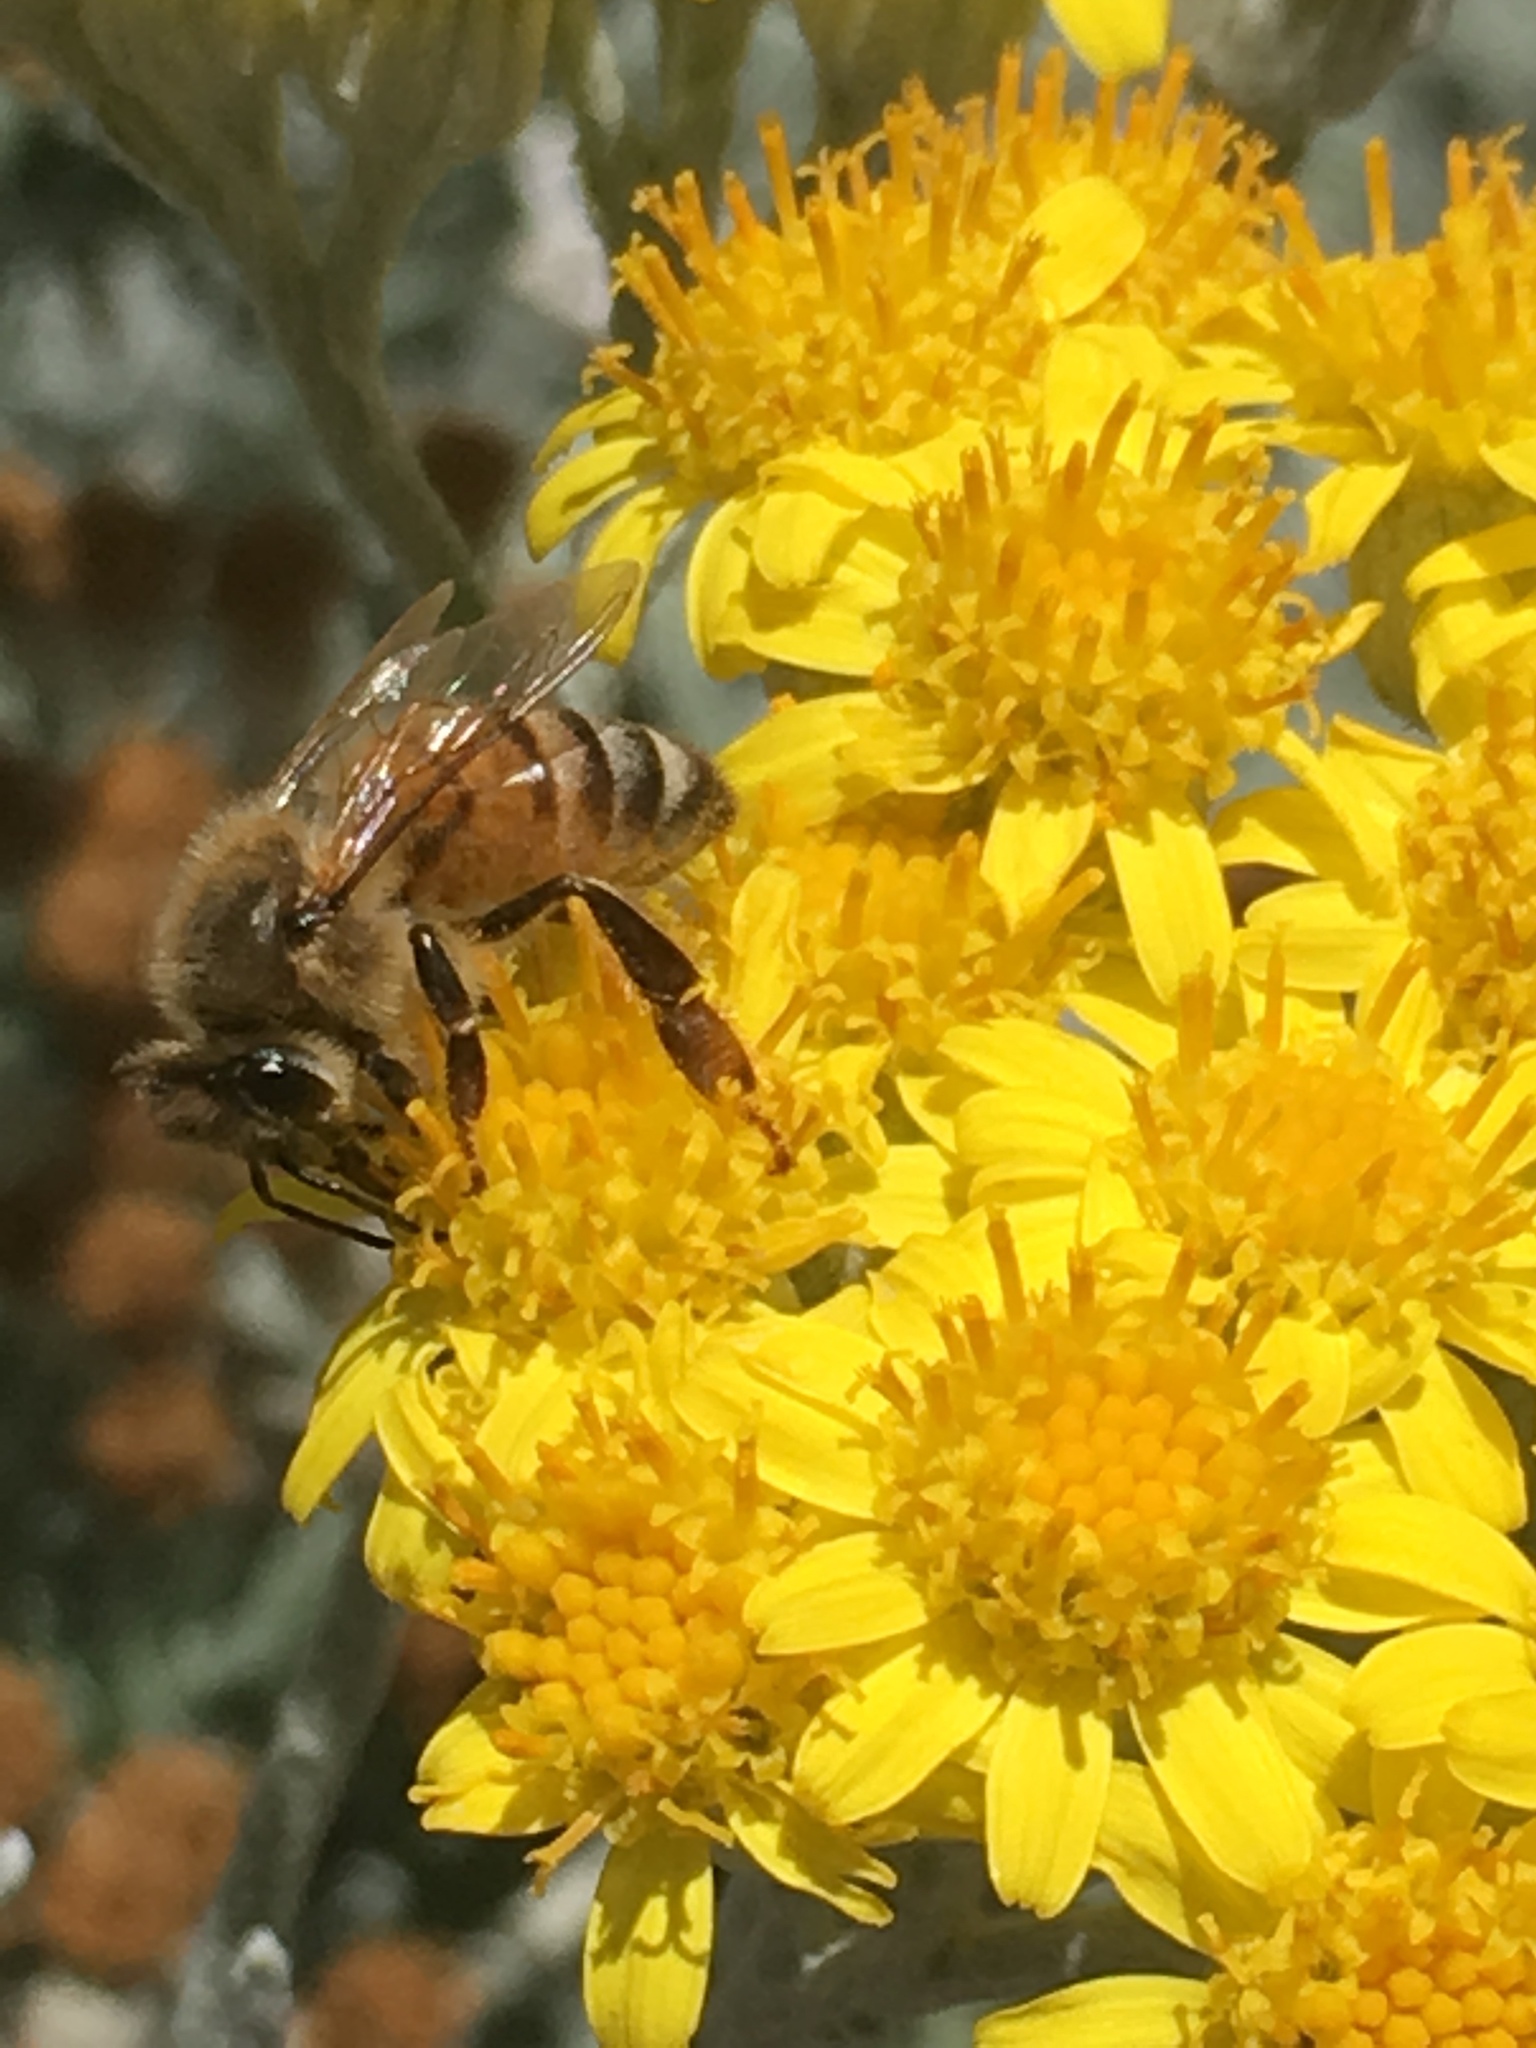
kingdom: Animalia
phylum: Arthropoda
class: Insecta
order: Hymenoptera
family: Apidae
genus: Apis
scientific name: Apis mellifera
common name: Honey bee
